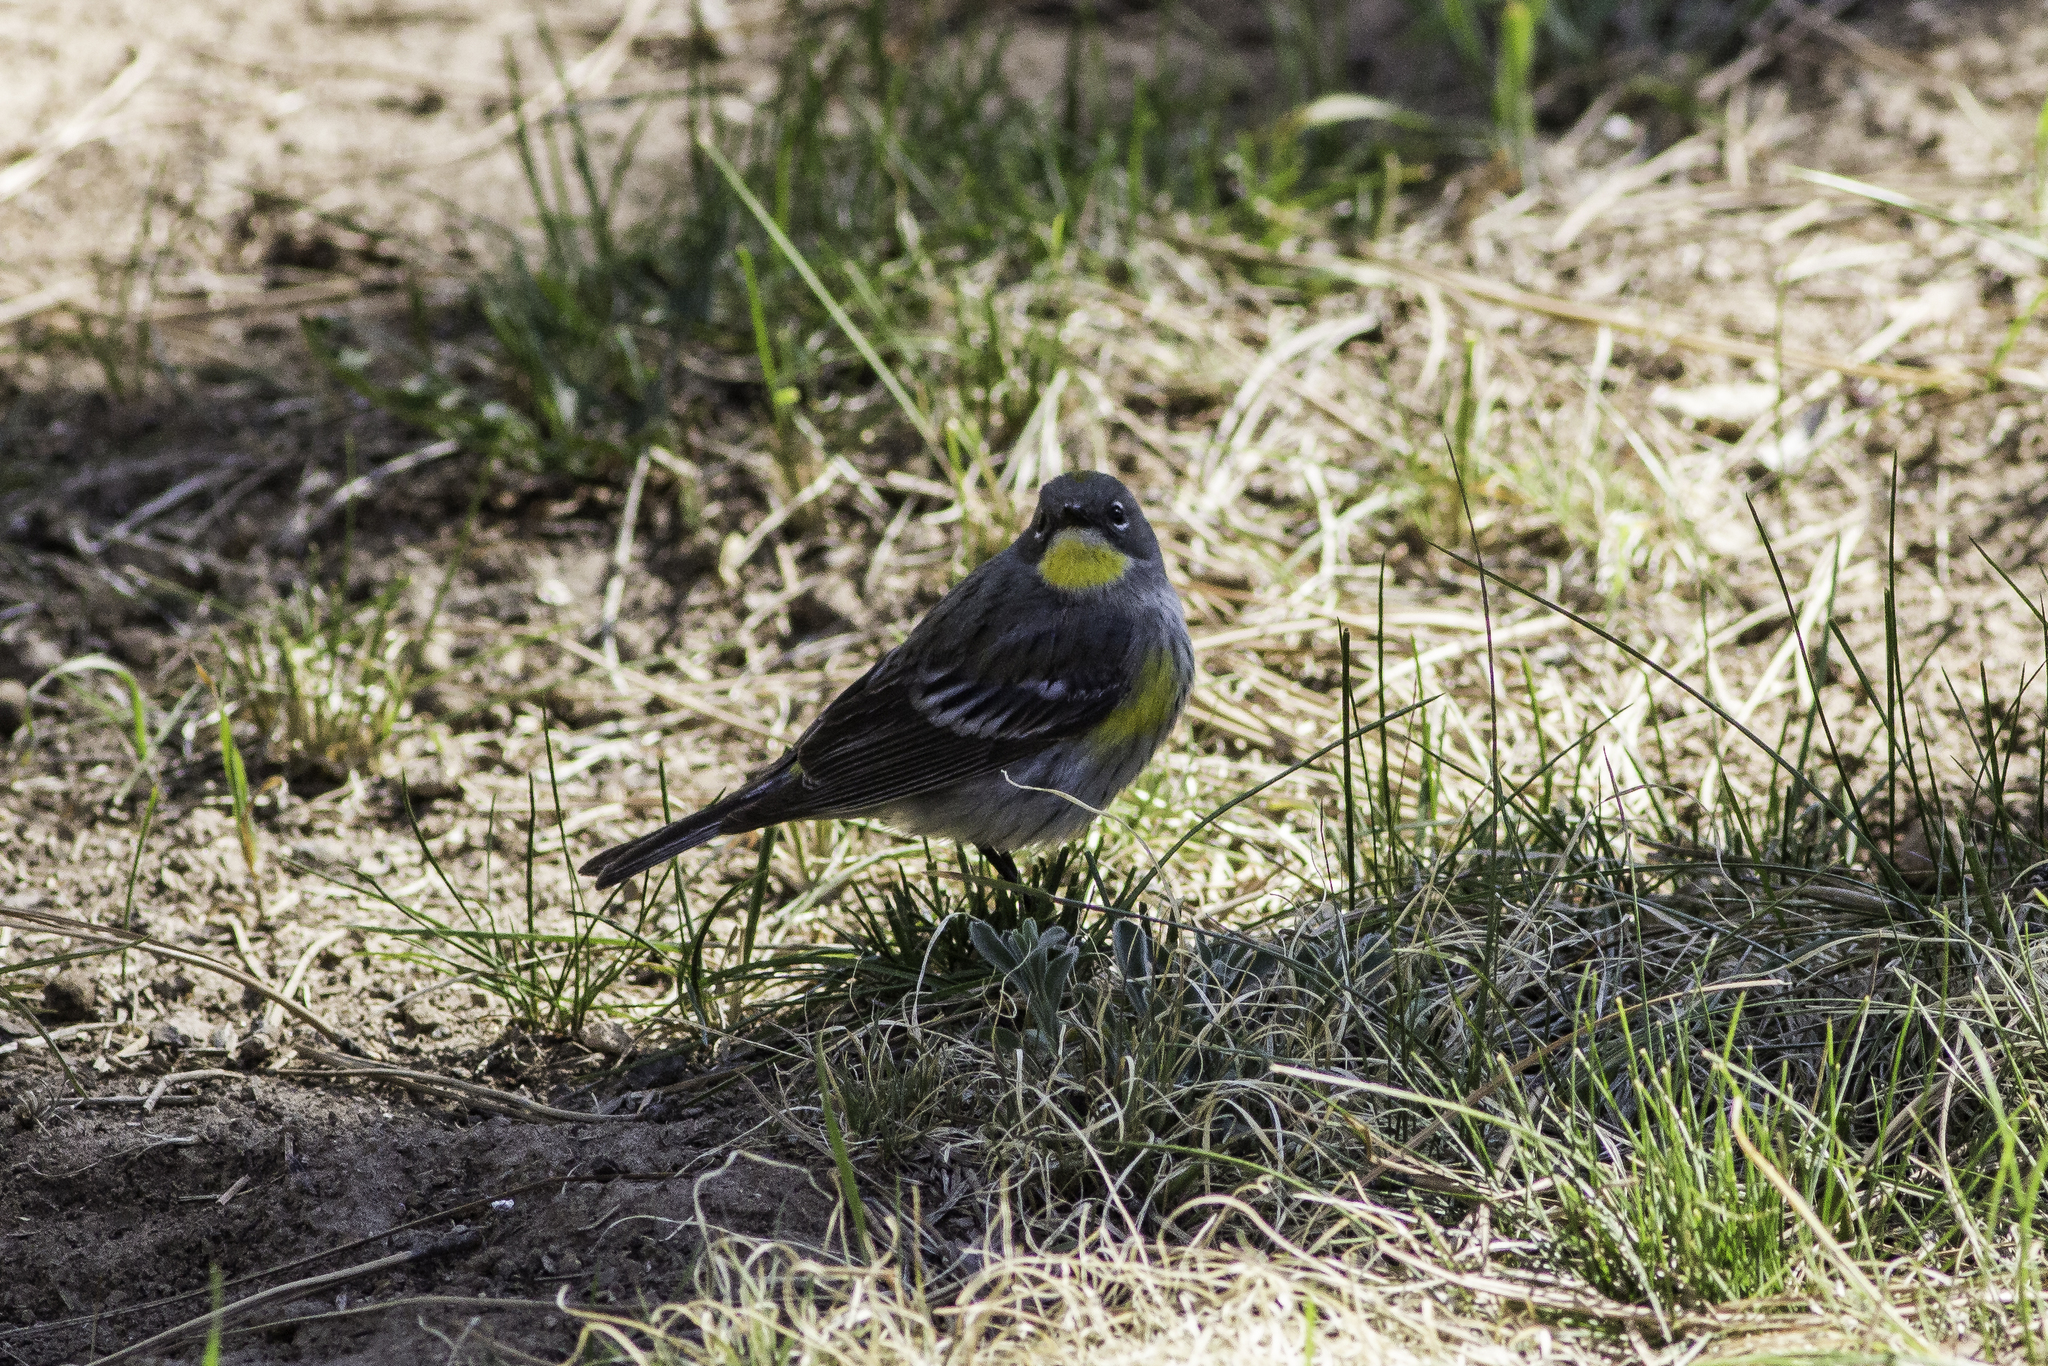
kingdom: Animalia
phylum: Chordata
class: Aves
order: Passeriformes
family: Parulidae
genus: Setophaga
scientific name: Setophaga coronata
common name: Myrtle warbler
